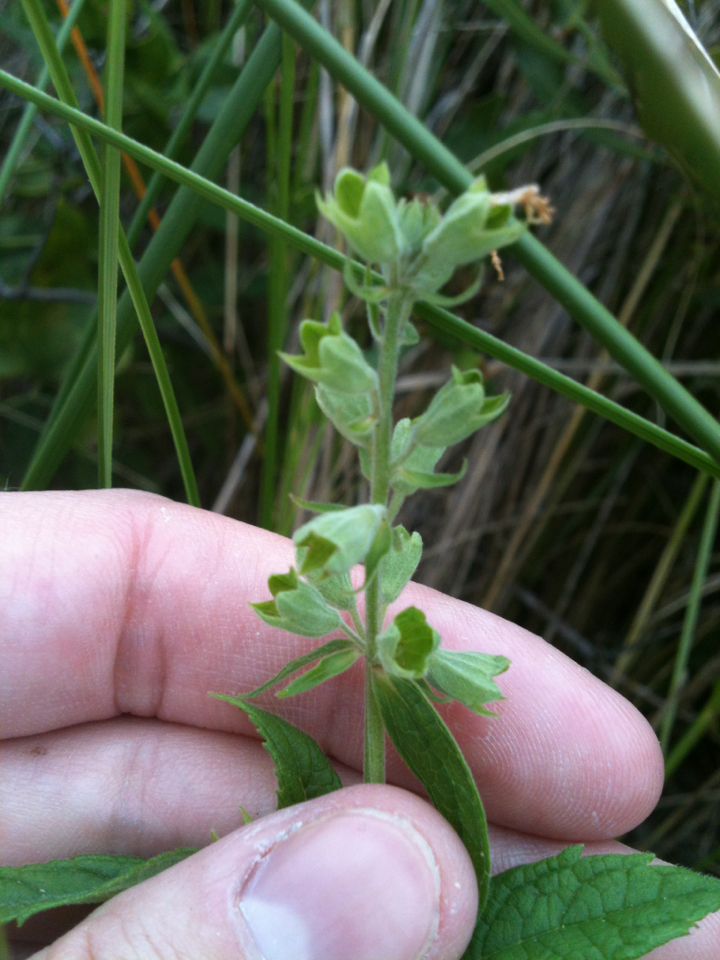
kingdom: Plantae
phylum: Tracheophyta
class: Magnoliopsida
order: Lamiales
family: Lamiaceae
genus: Teucrium
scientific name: Teucrium canadense
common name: American germander
